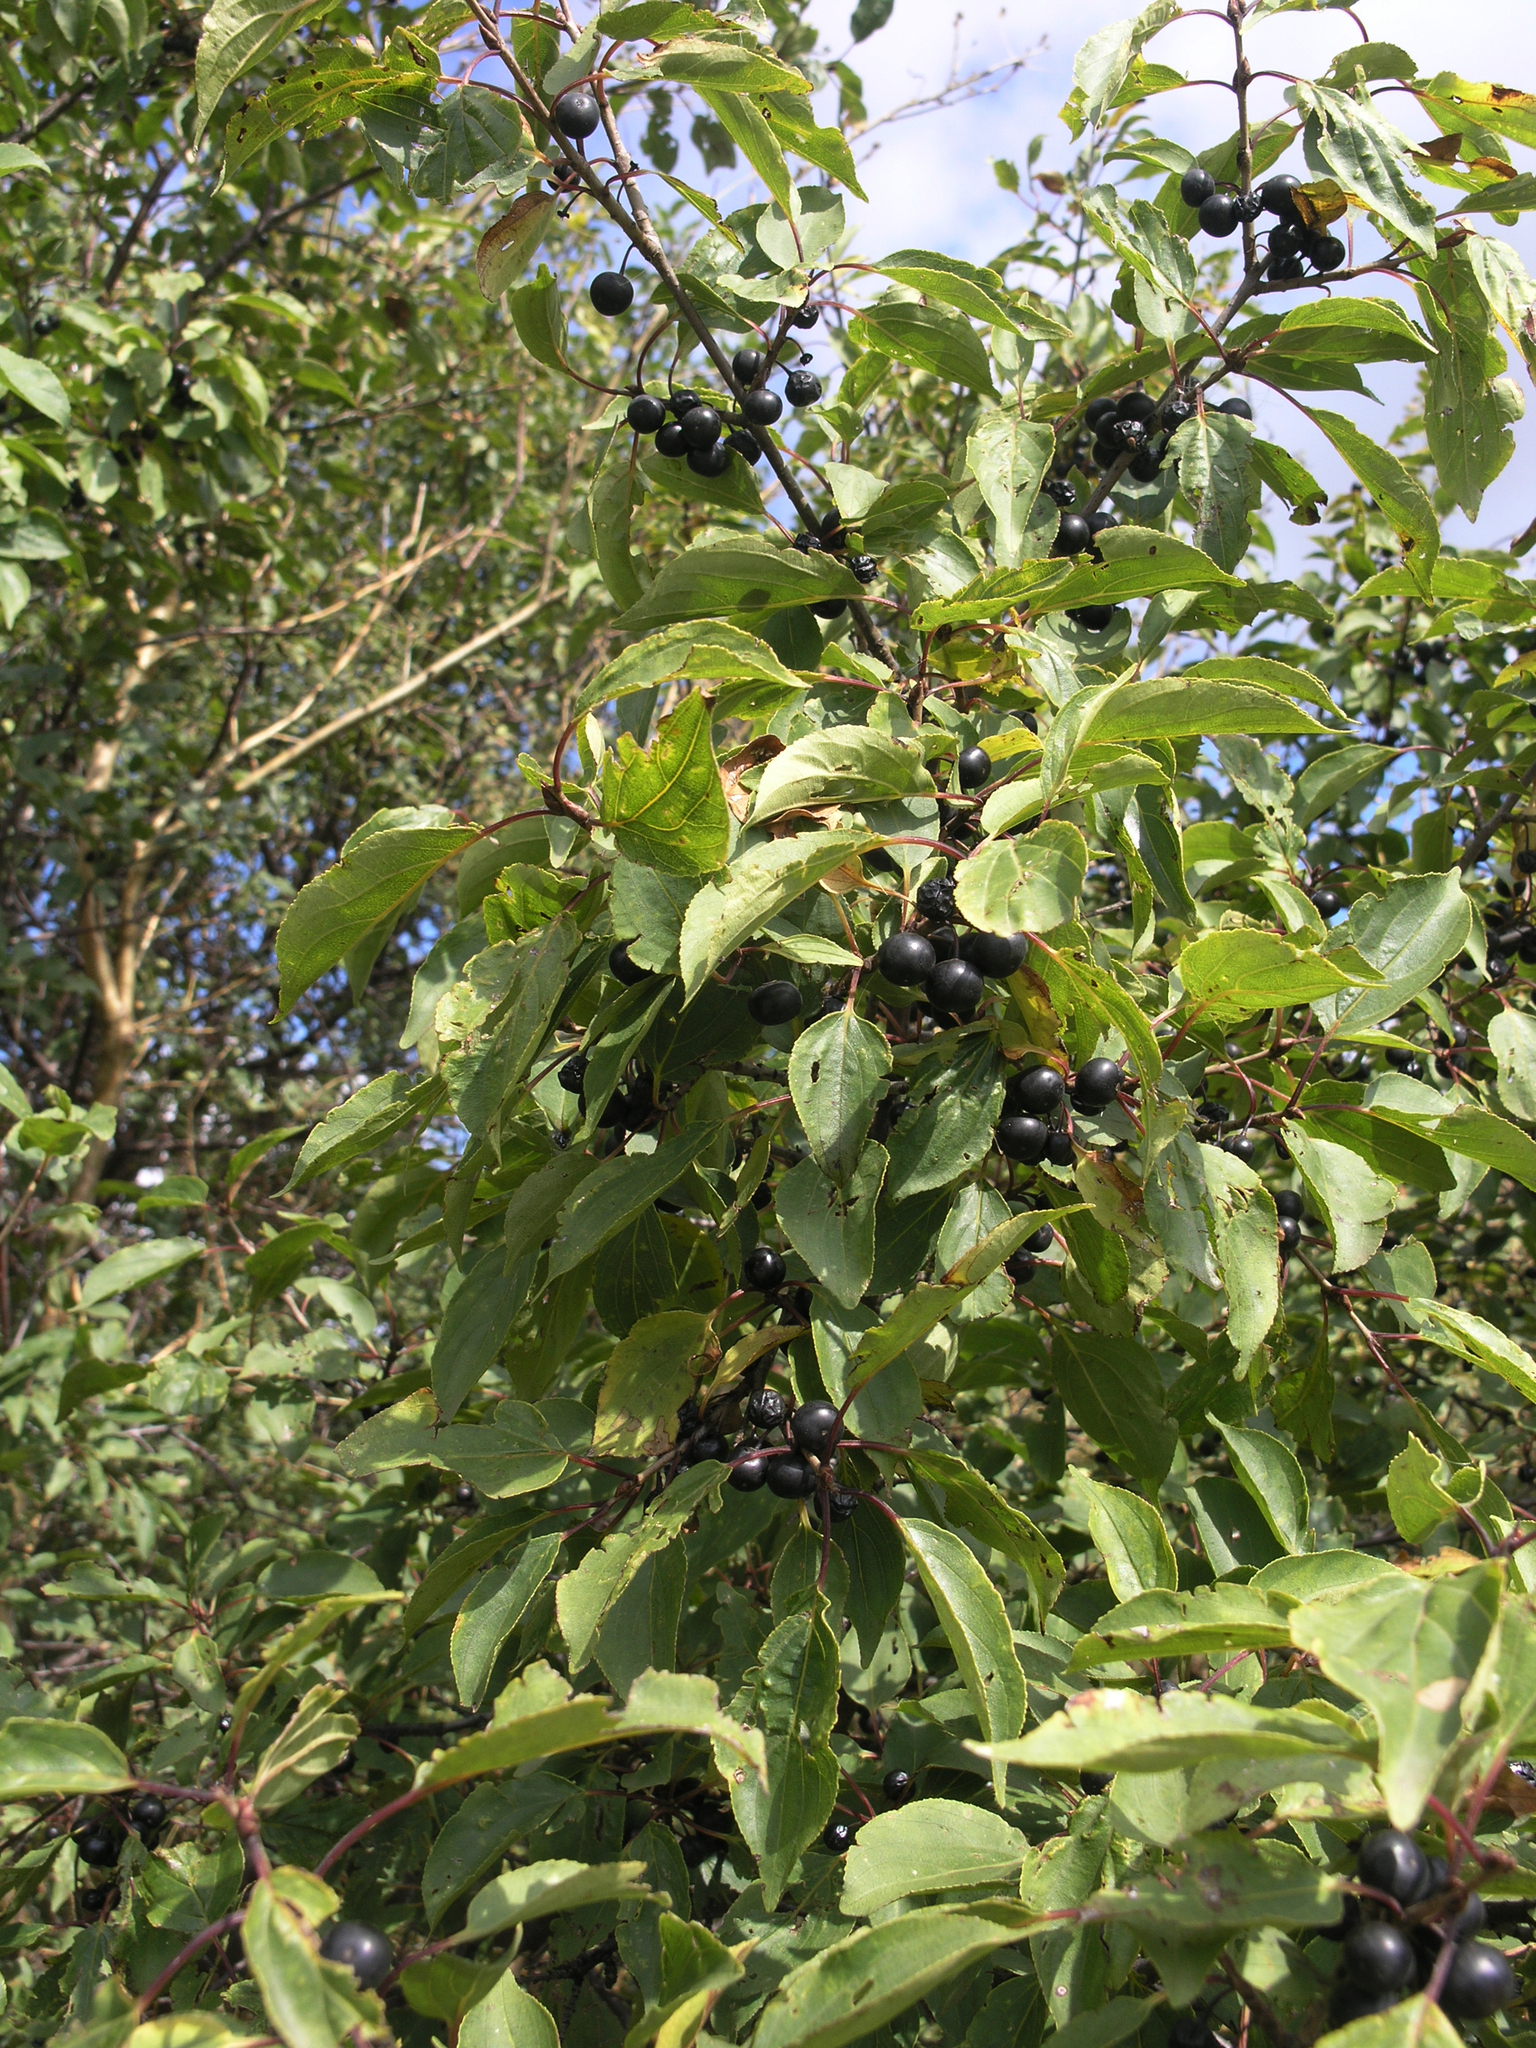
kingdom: Plantae
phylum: Tracheophyta
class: Magnoliopsida
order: Rosales
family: Rhamnaceae
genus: Rhamnus
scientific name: Rhamnus cathartica
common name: Common buckthorn
